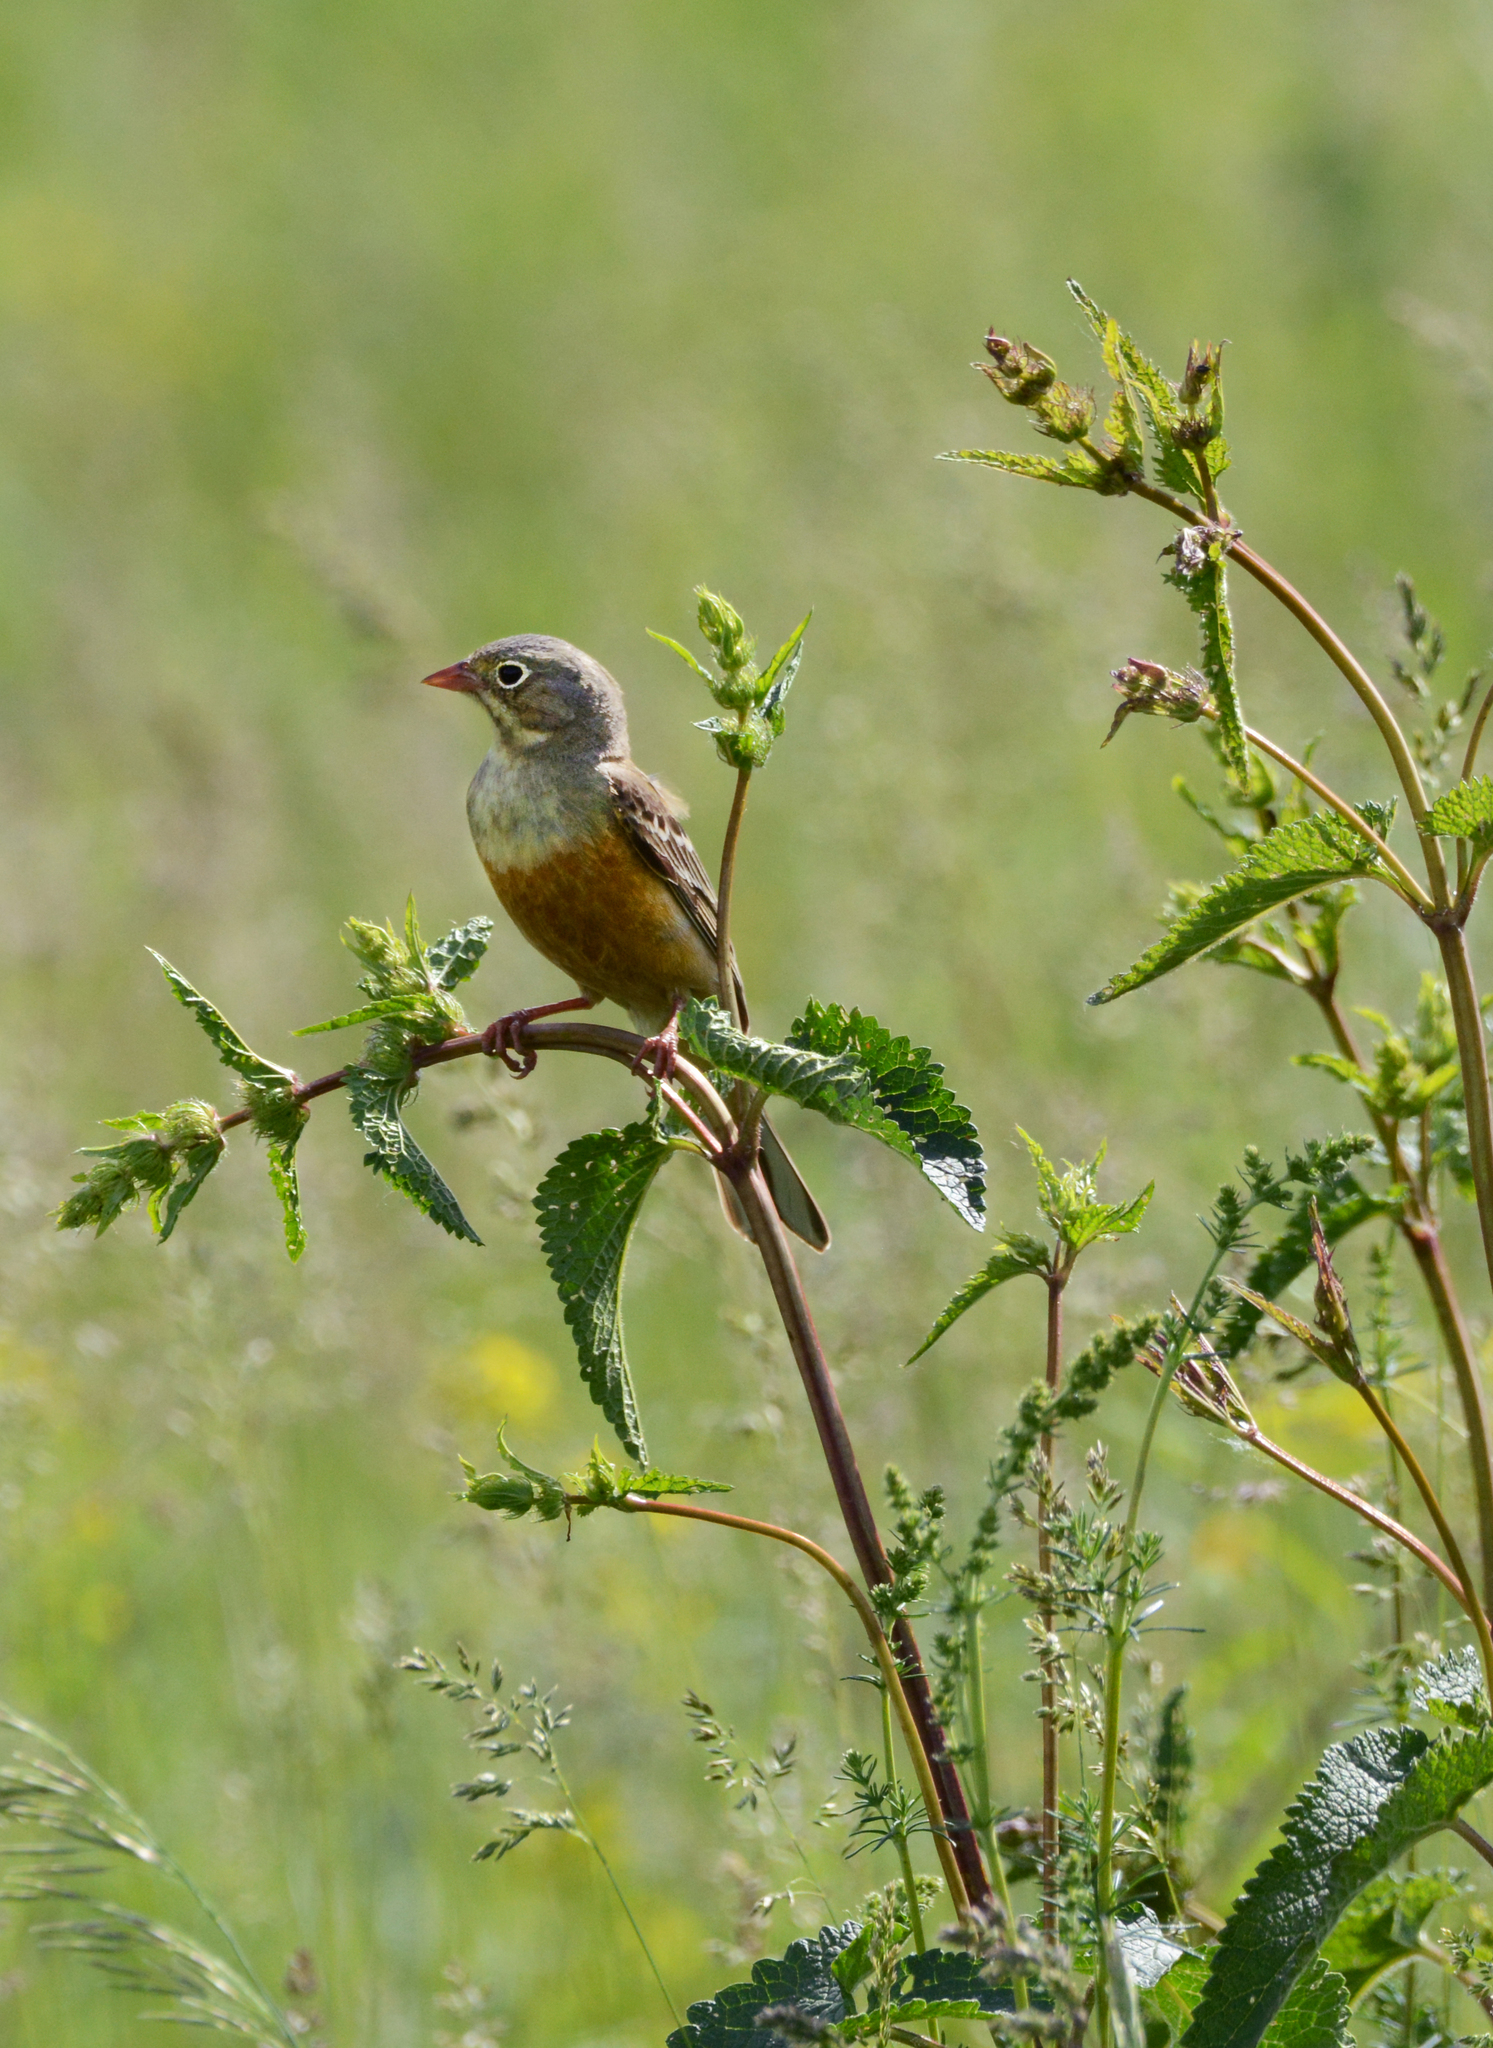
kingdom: Animalia
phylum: Chordata
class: Aves
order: Passeriformes
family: Emberizidae
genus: Emberiza
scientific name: Emberiza hortulana
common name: Ortolan bunting
